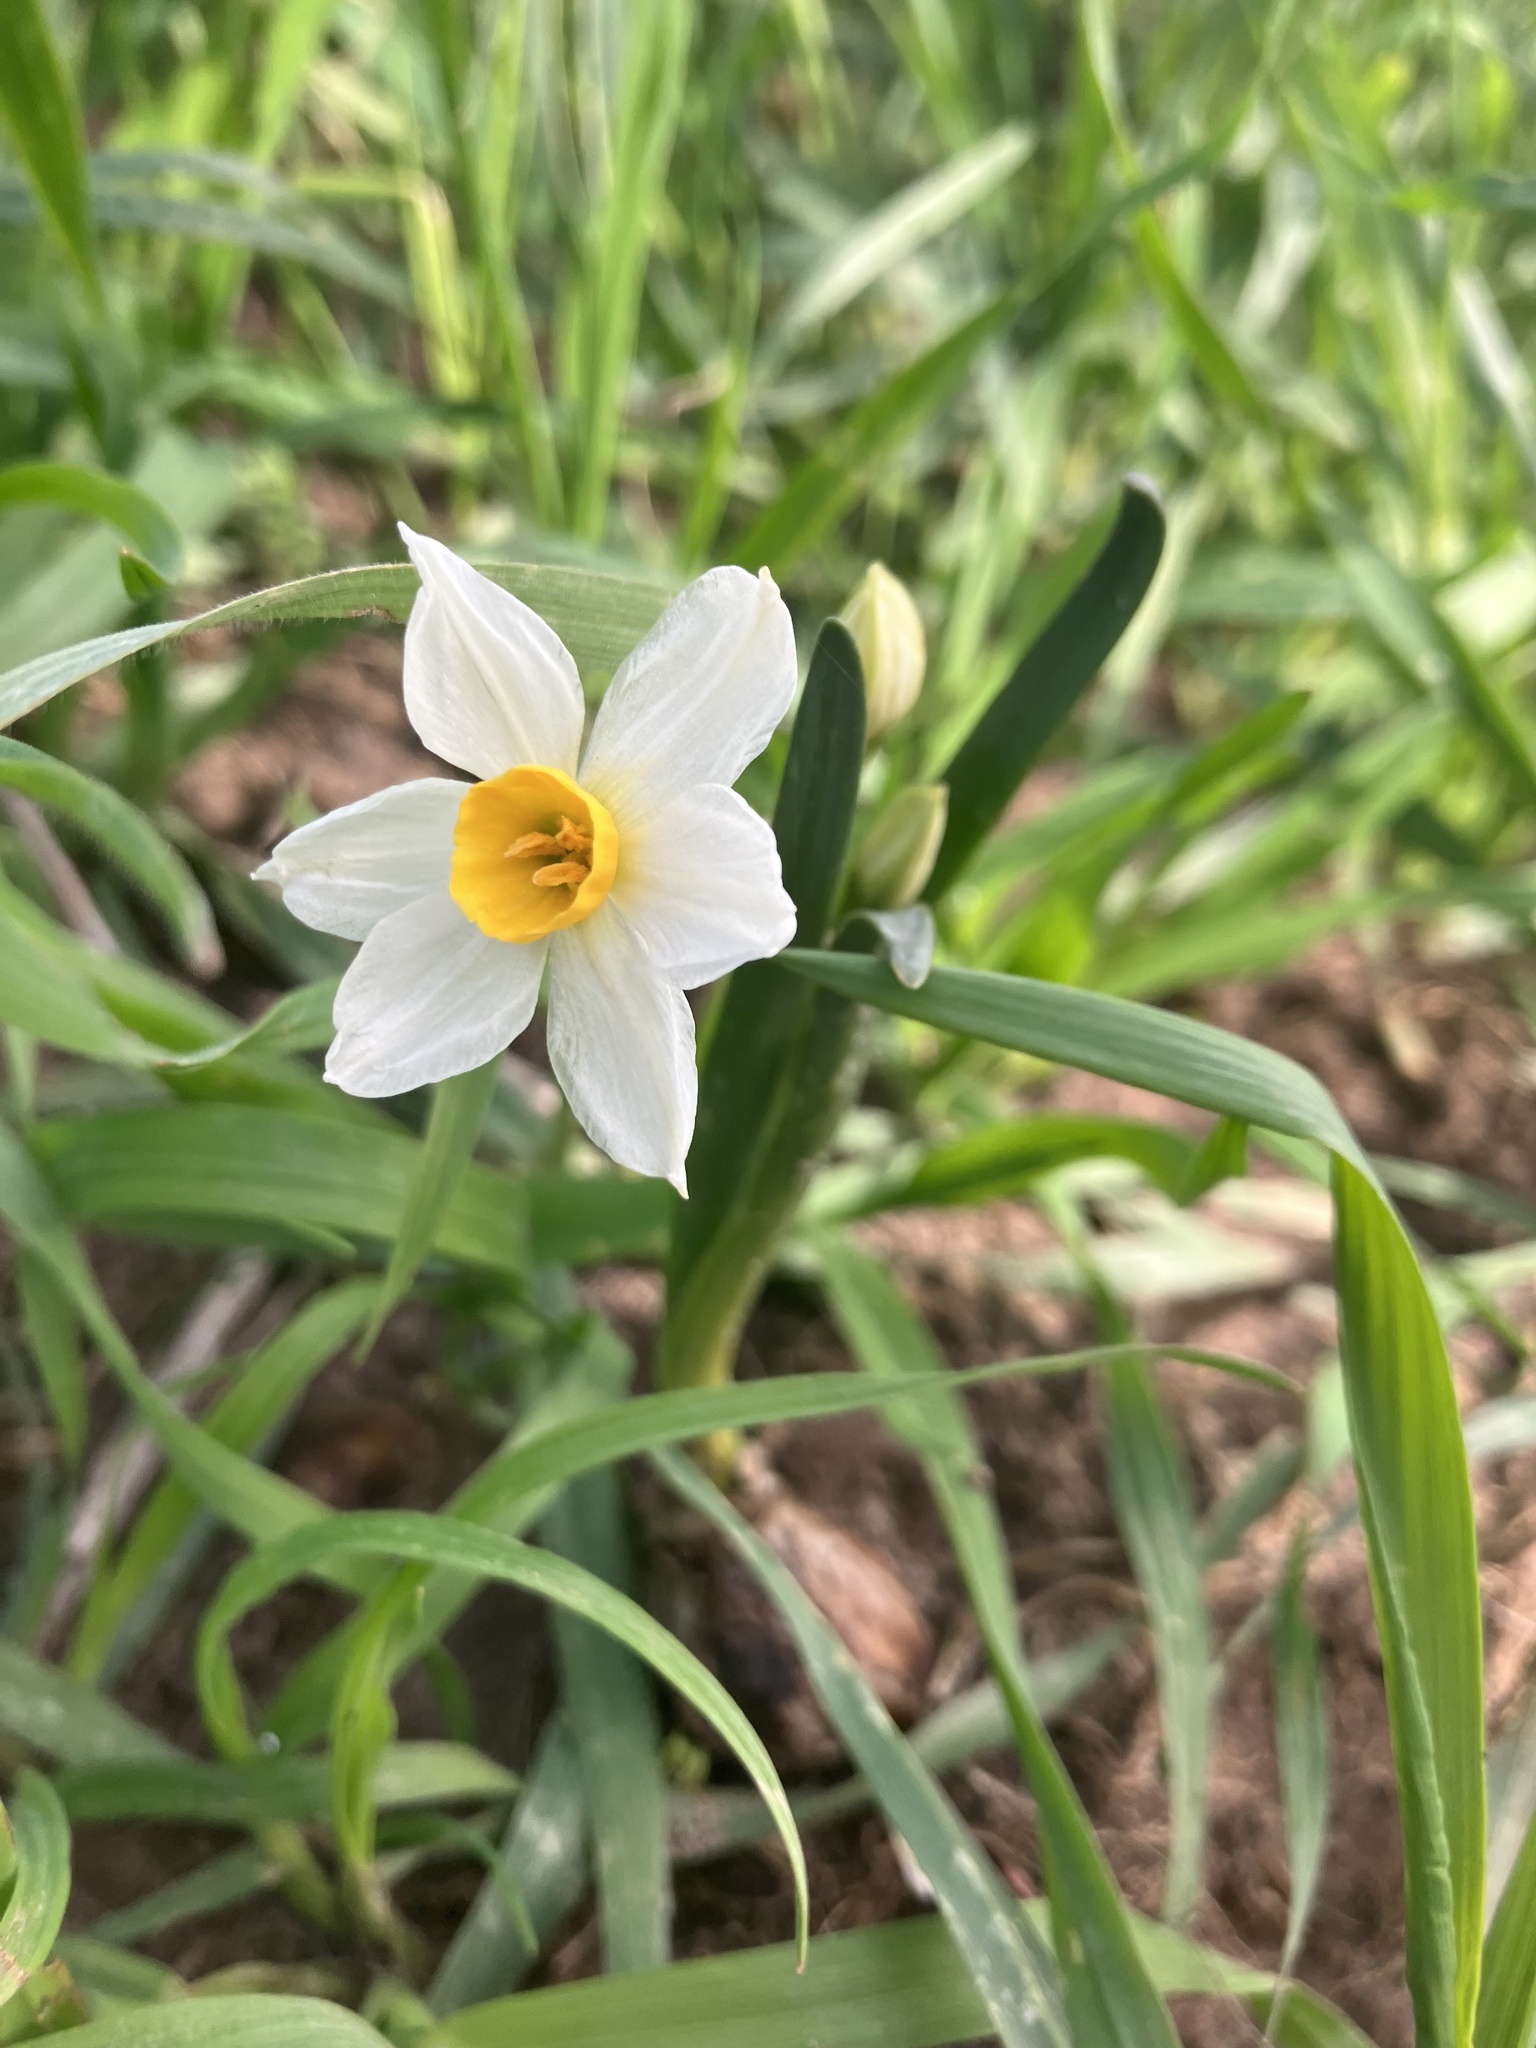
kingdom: Plantae
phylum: Tracheophyta
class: Liliopsida
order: Asparagales
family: Amaryllidaceae
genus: Narcissus
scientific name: Narcissus tazetta
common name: Bunch-flowered daffodil
